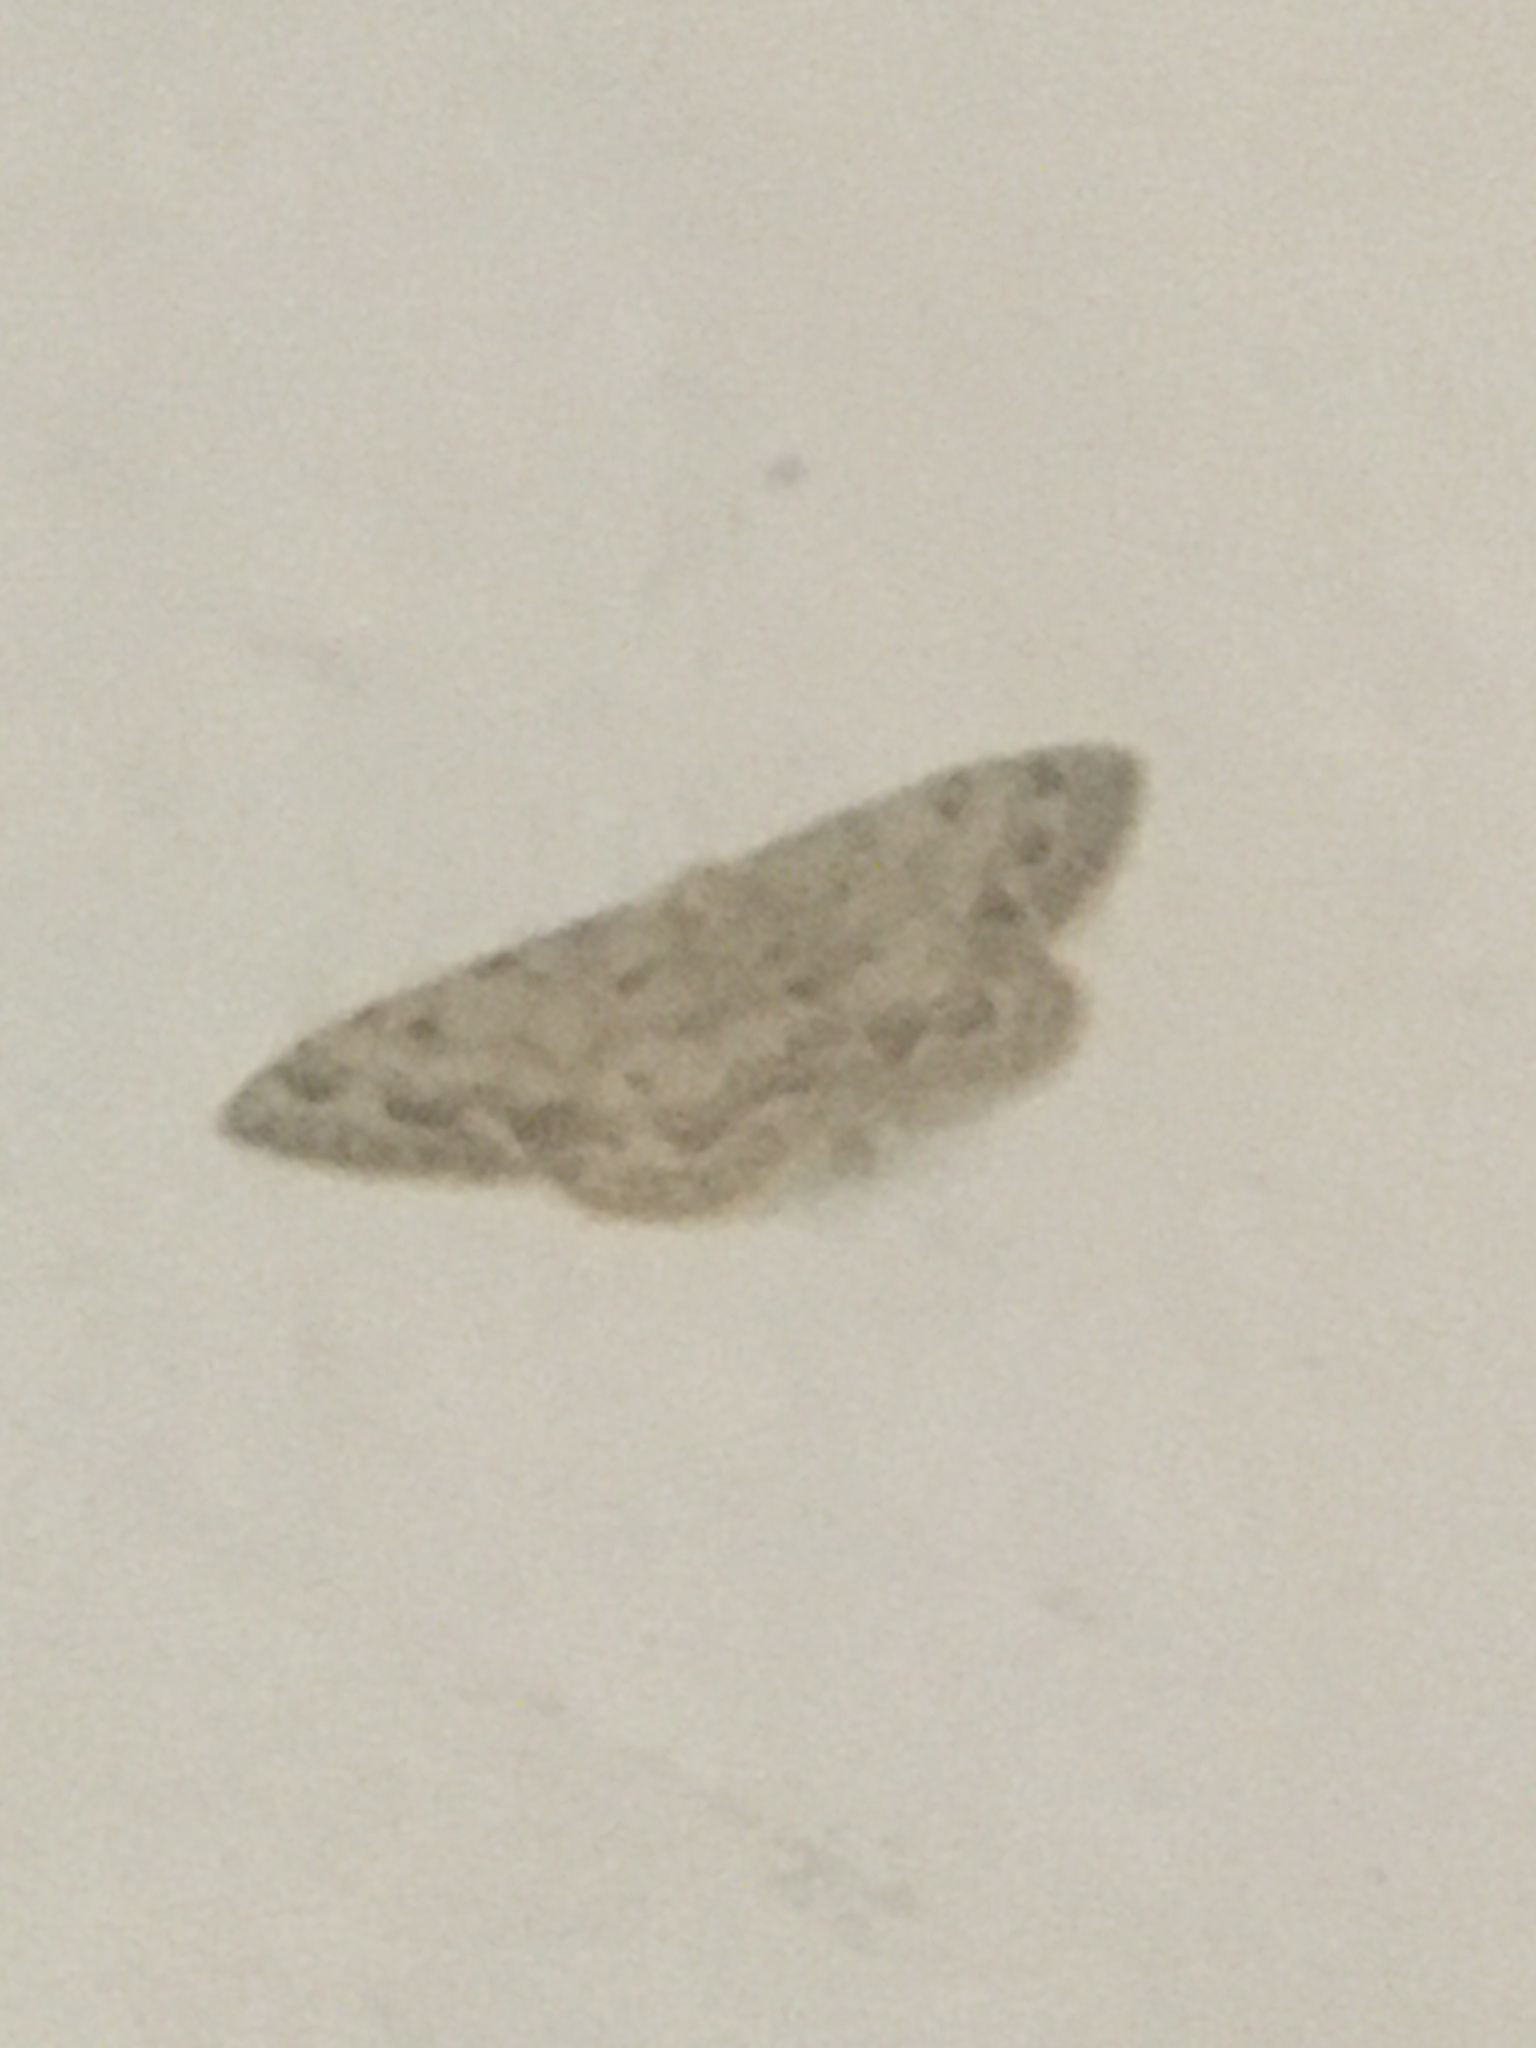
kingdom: Animalia
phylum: Arthropoda
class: Insecta
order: Lepidoptera
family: Geometridae
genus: Scopula
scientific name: Scopula marginepunctata
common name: Mullein wave
